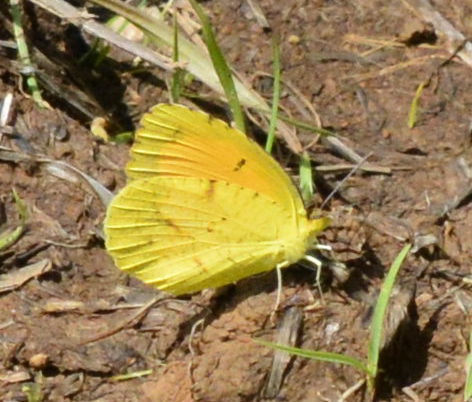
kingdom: Animalia
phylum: Arthropoda
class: Insecta
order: Lepidoptera
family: Pieridae
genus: Abaeis
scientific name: Abaeis nicippe
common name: Sleepy orange
